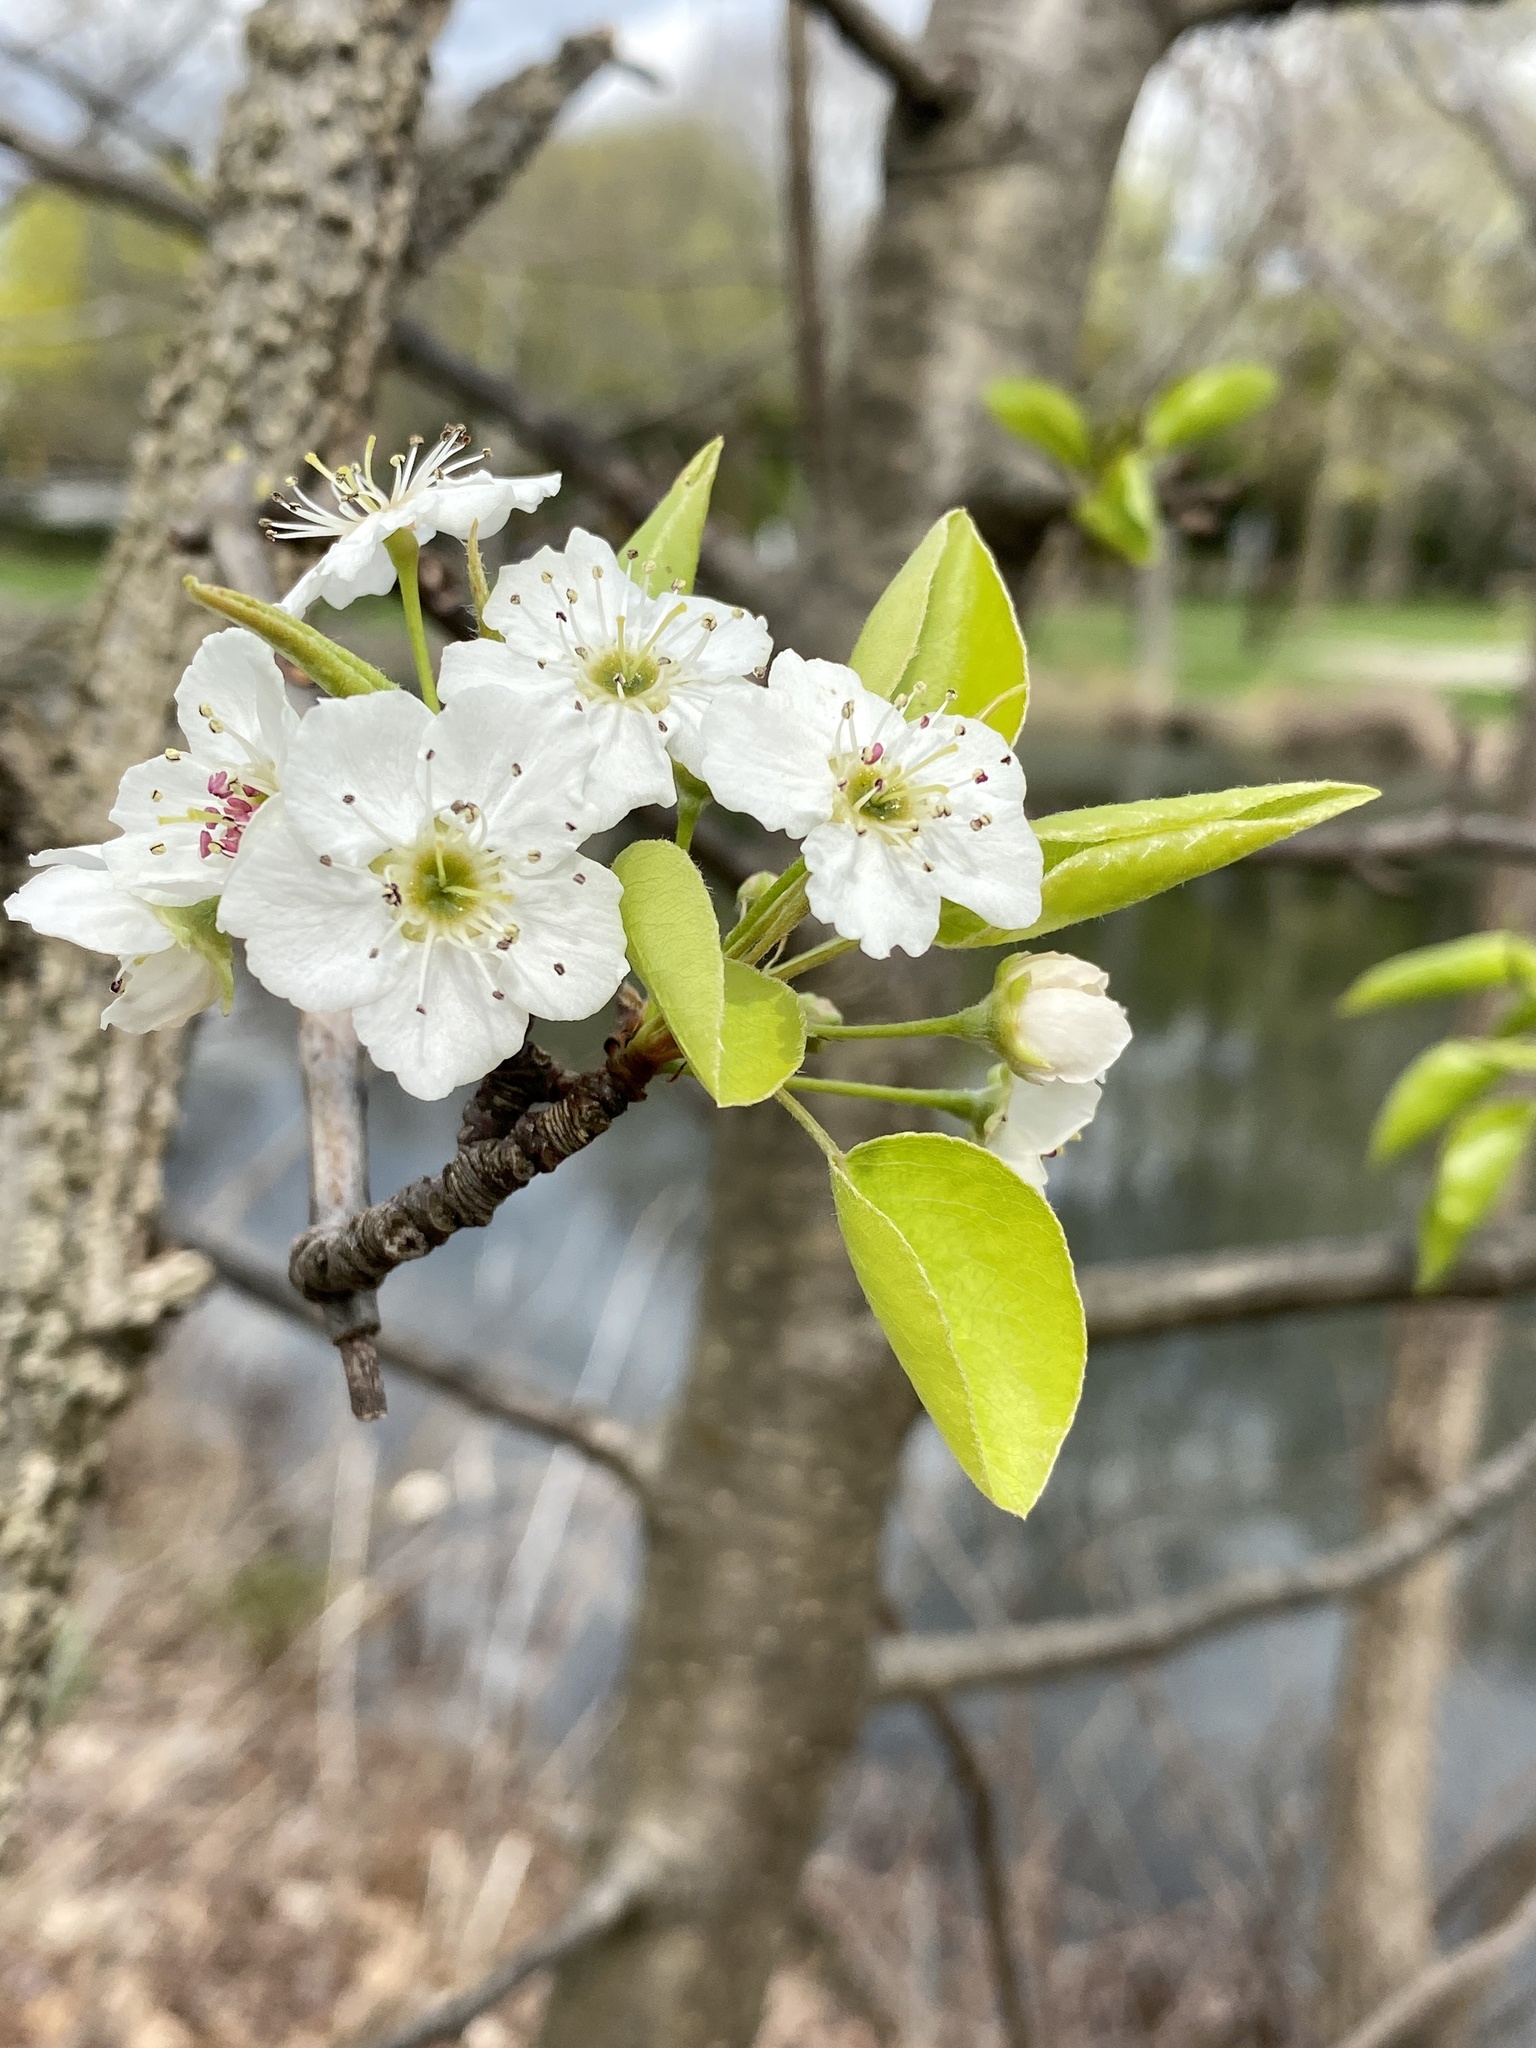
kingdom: Plantae
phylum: Tracheophyta
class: Magnoliopsida
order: Rosales
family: Rosaceae
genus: Pyrus
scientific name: Pyrus calleryana
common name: Callery pear
